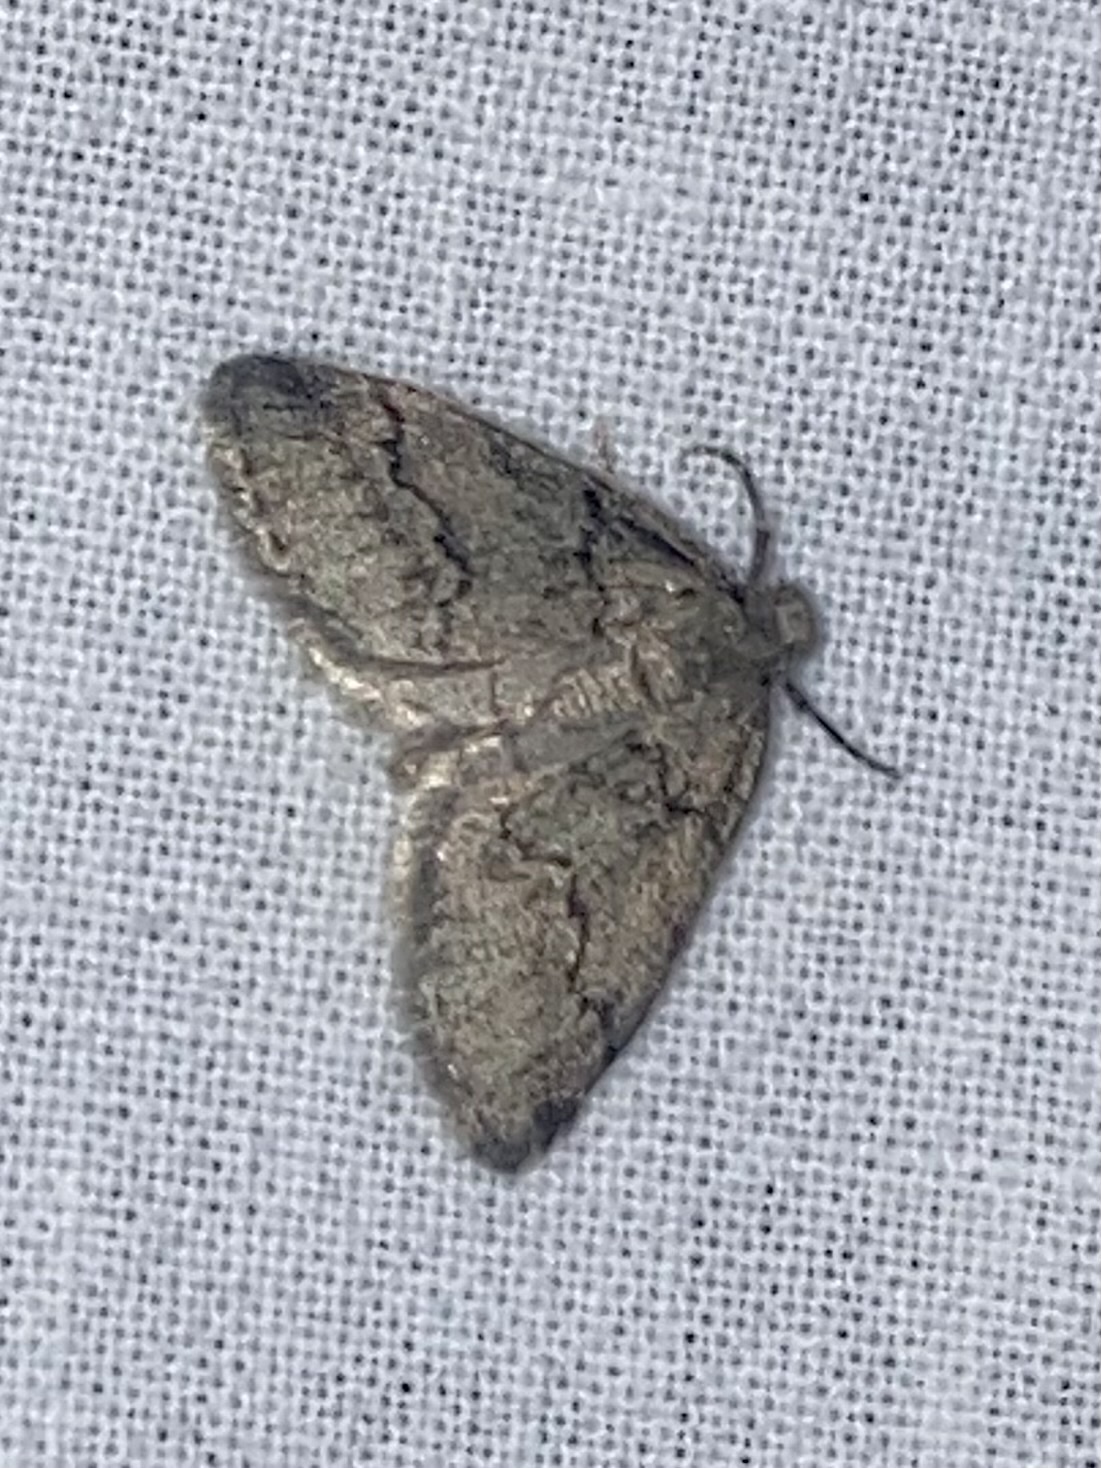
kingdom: Animalia
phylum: Arthropoda
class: Insecta
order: Lepidoptera
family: Geometridae
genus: Tephronia
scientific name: Tephronia sepiaria
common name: Dusky carpet
